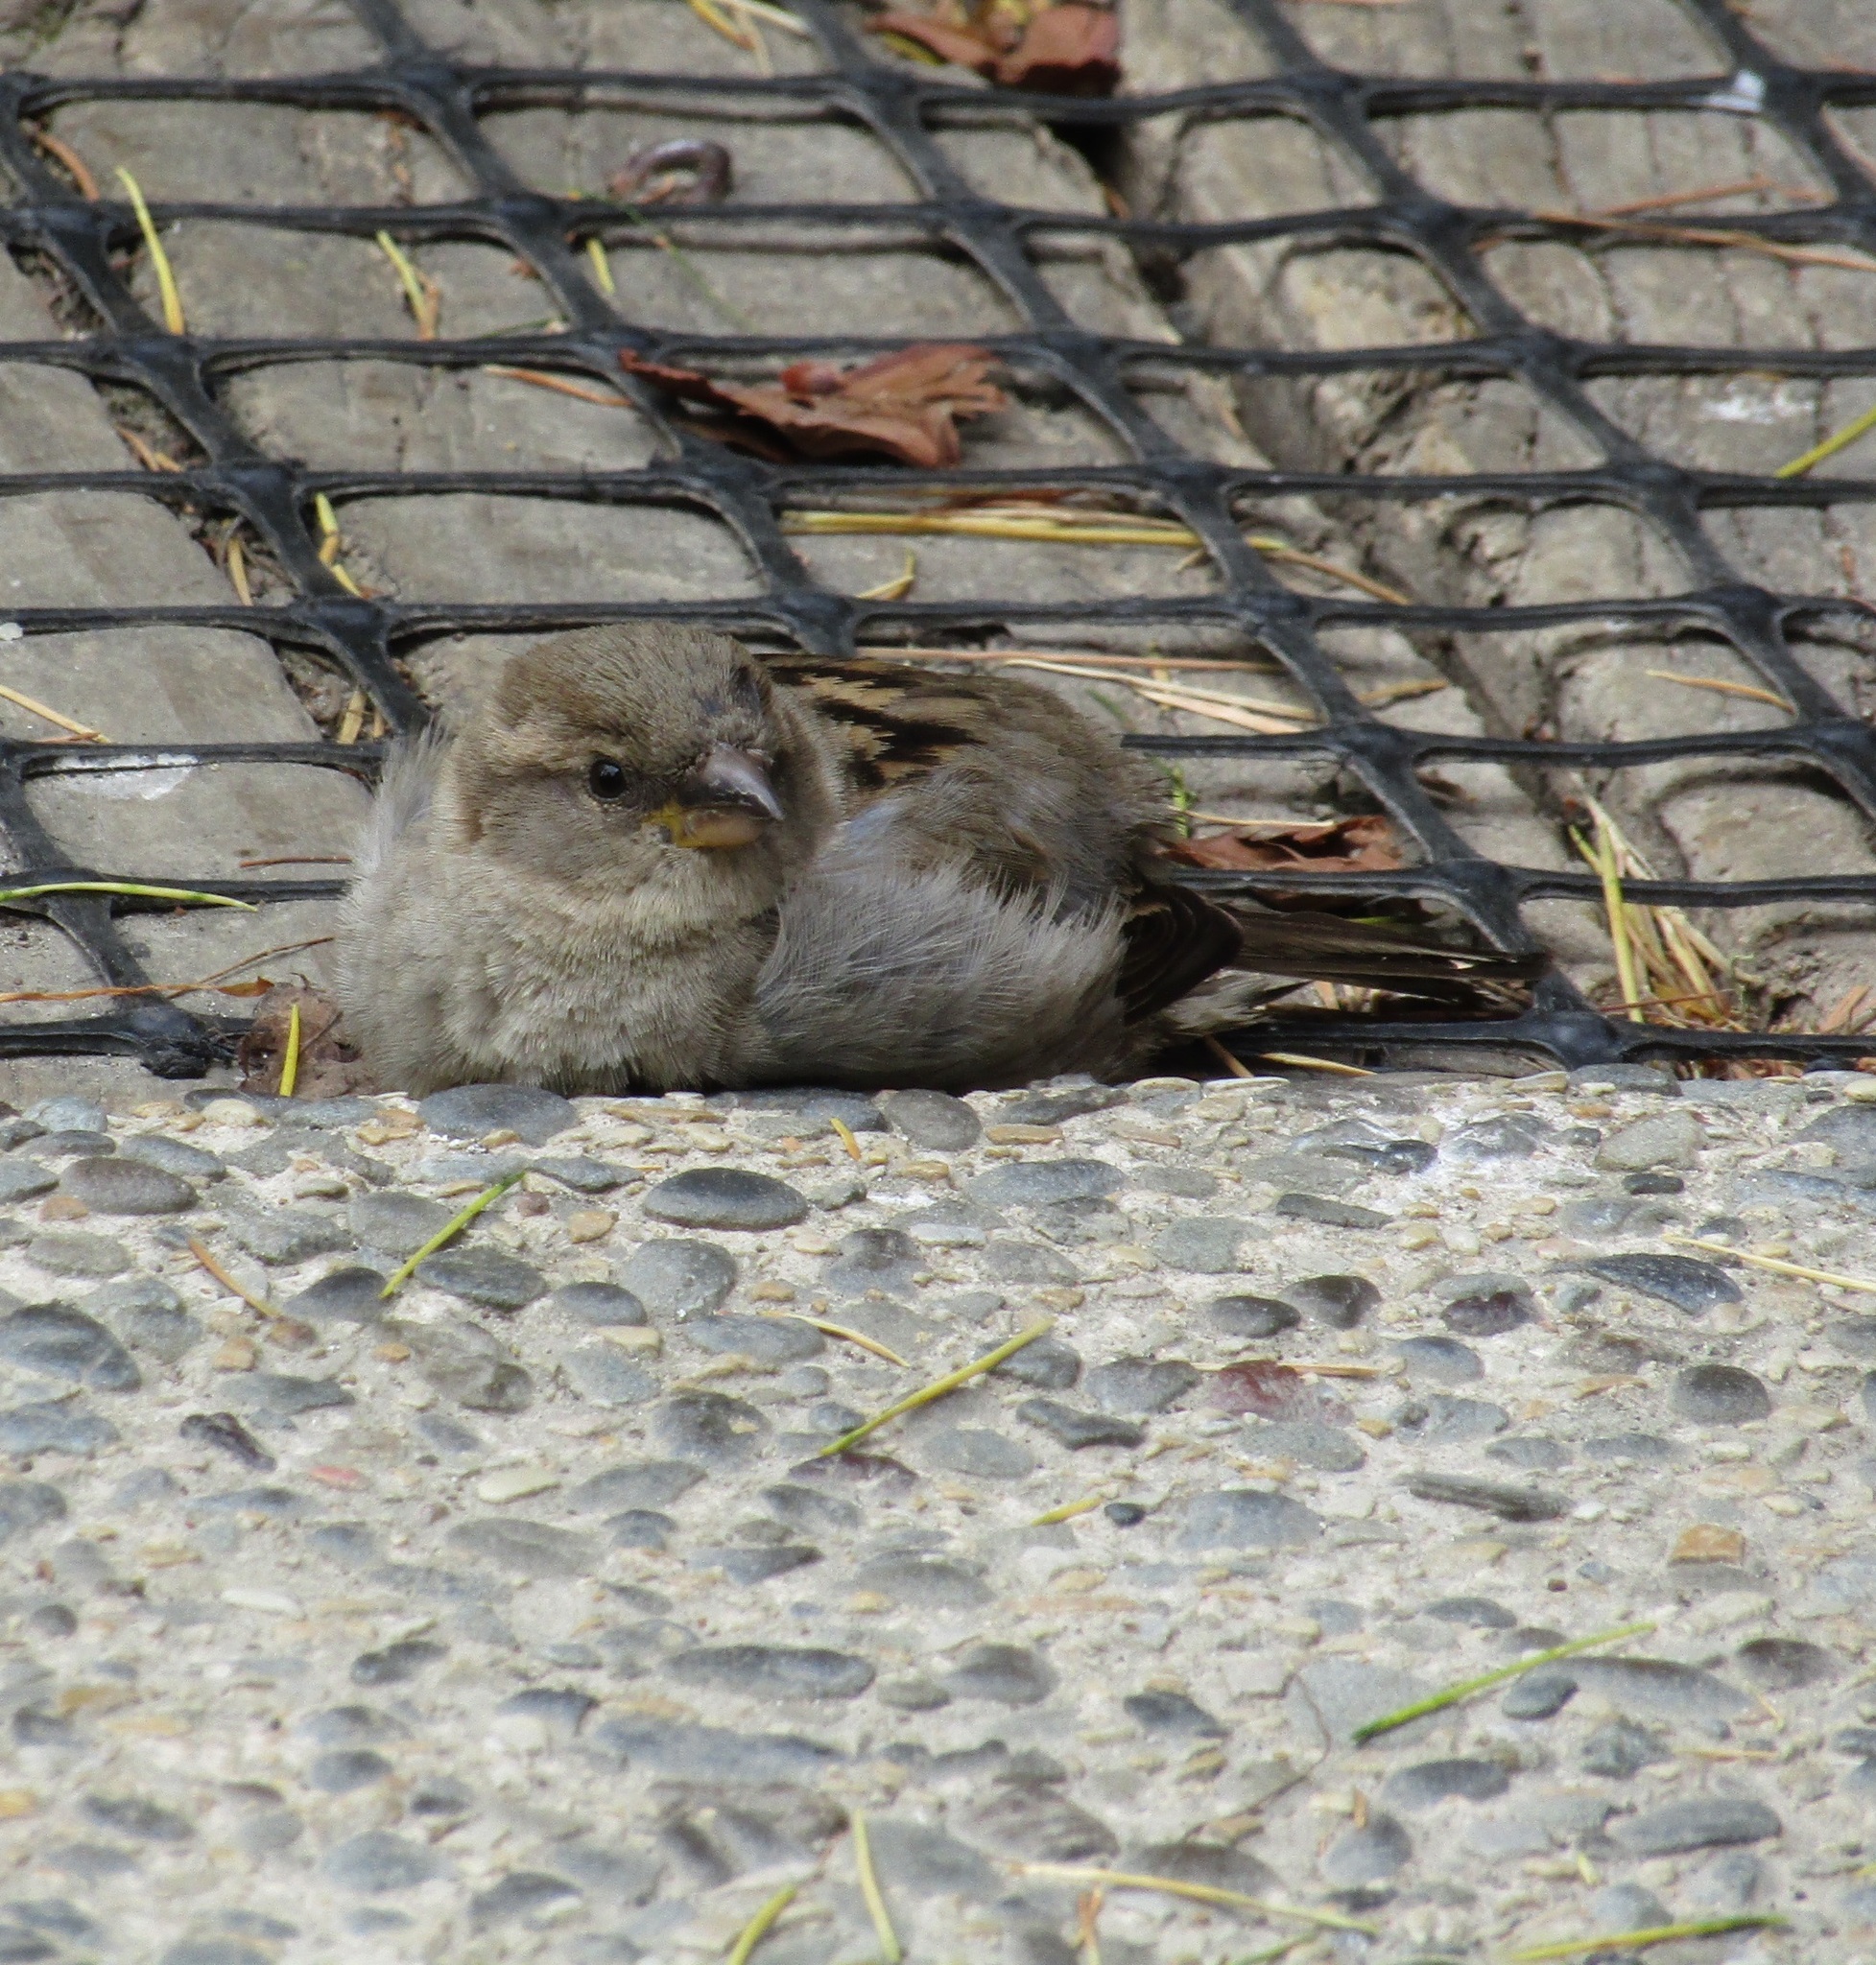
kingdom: Animalia
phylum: Chordata
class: Aves
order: Passeriformes
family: Passeridae
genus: Passer
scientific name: Passer domesticus
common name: House sparrow
